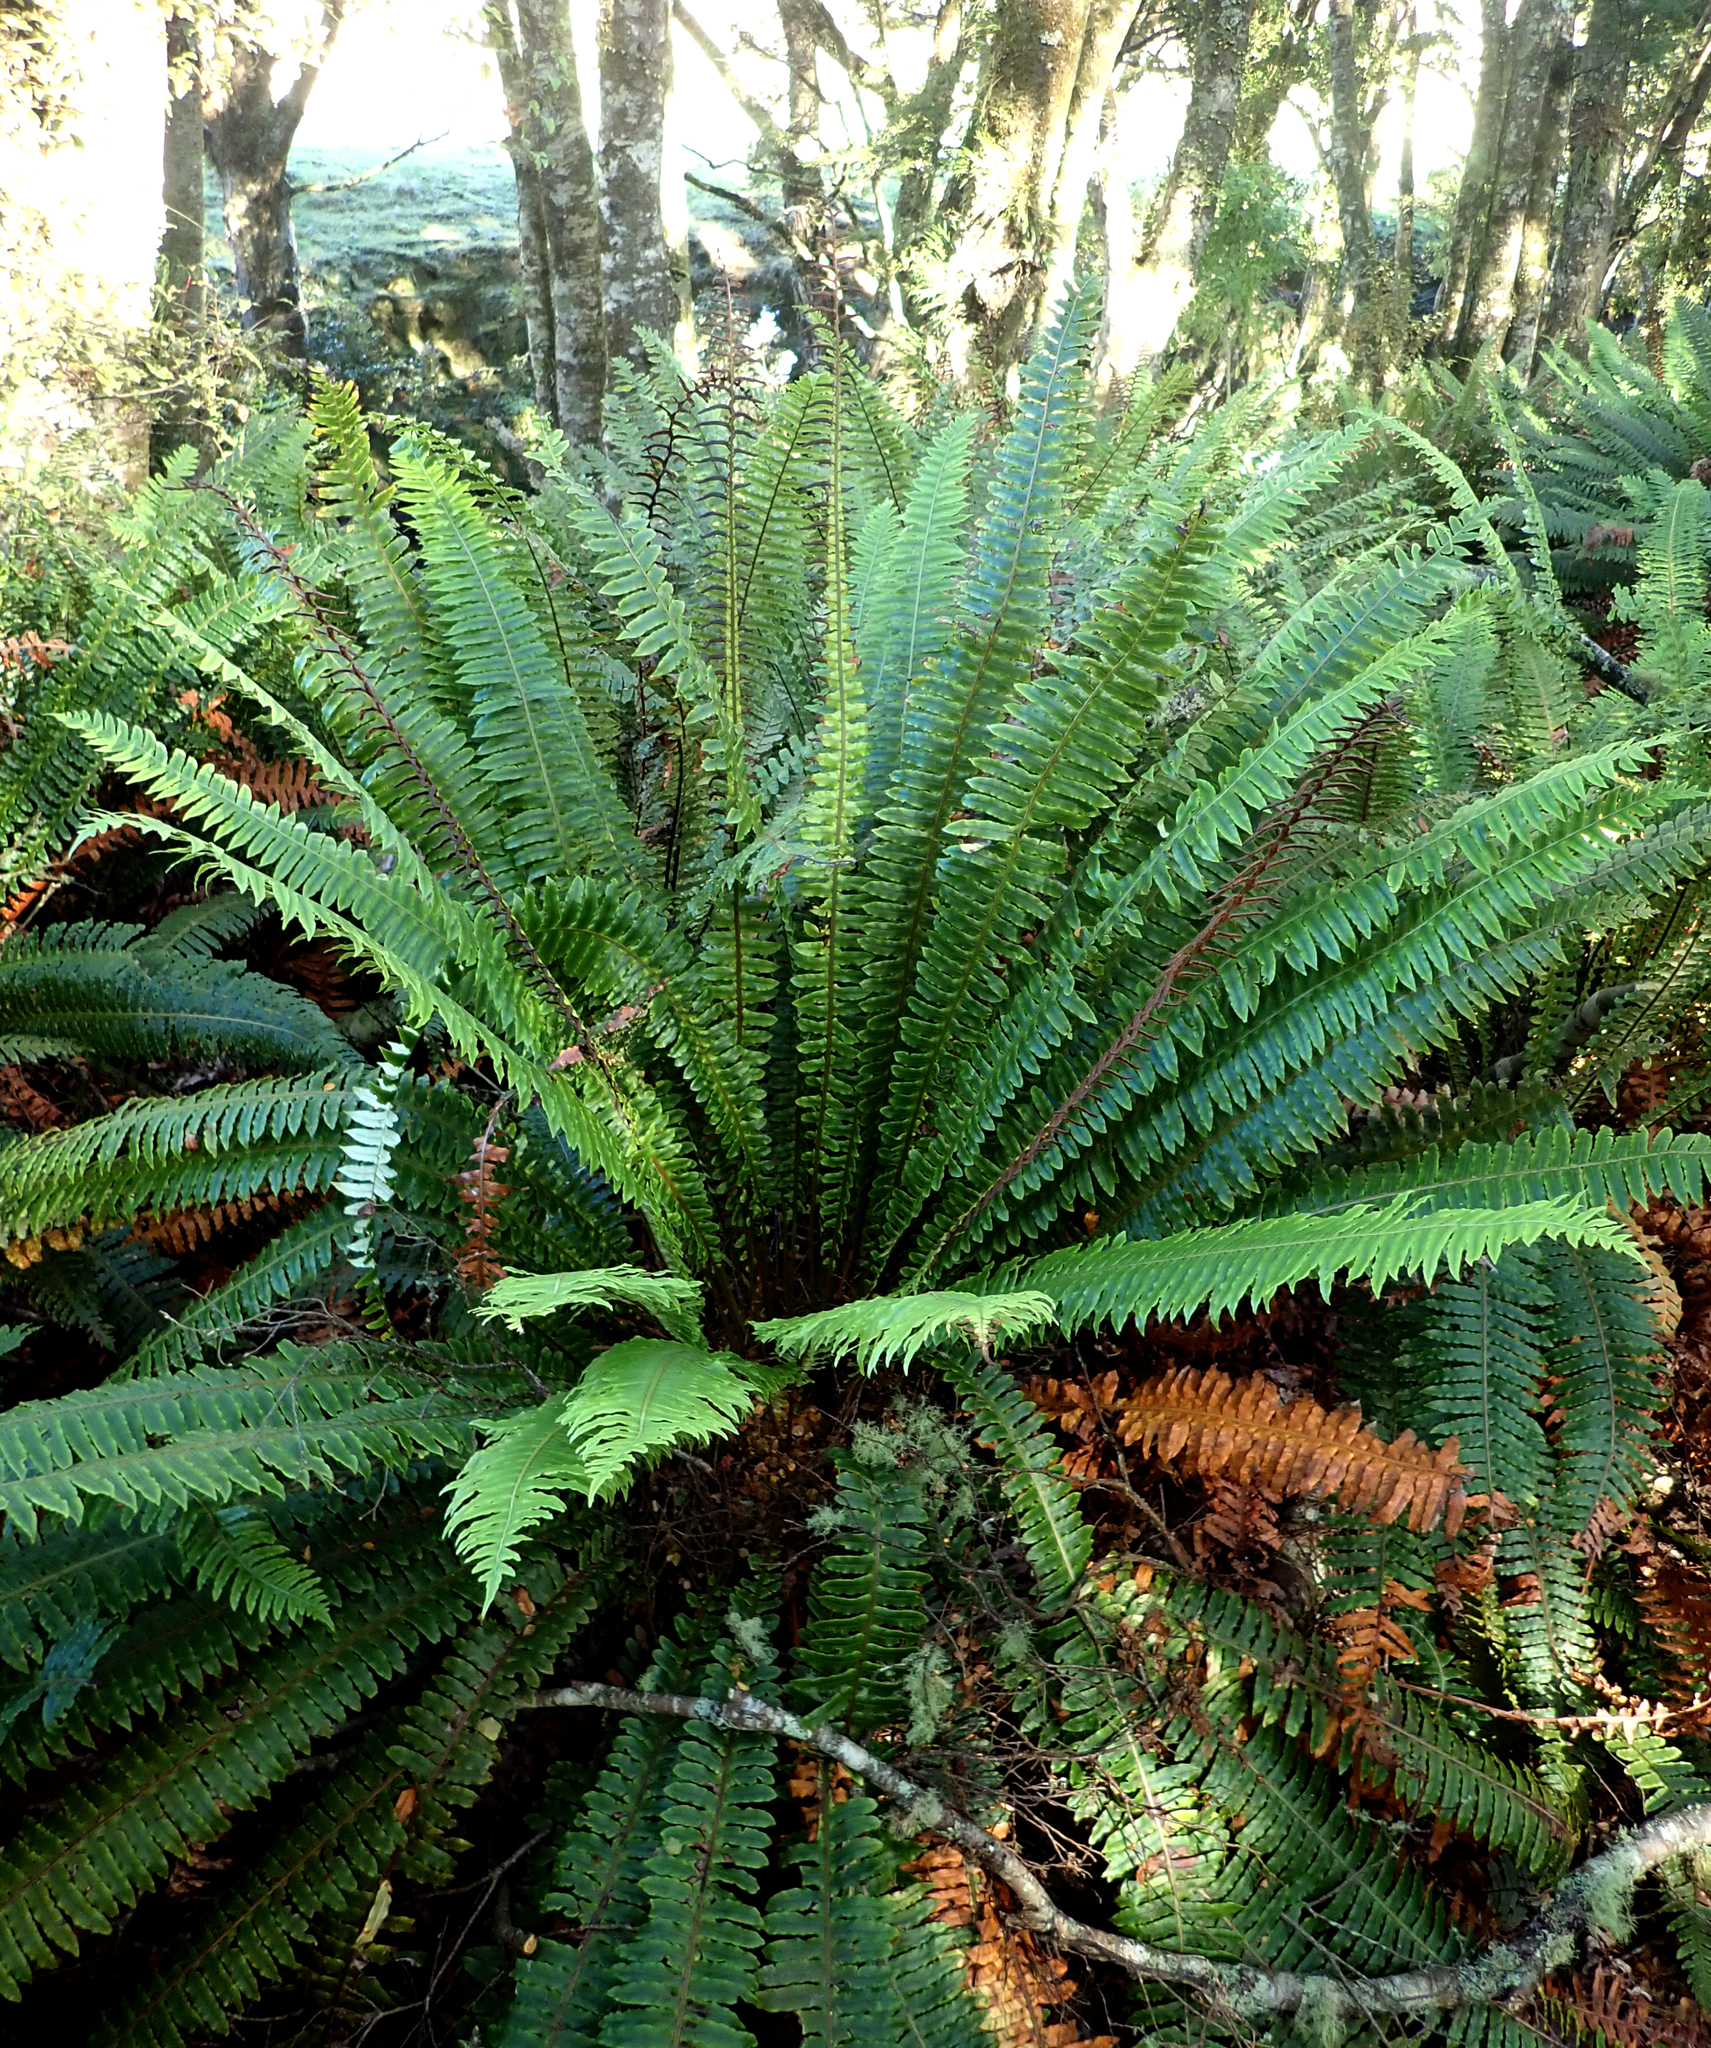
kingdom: Plantae
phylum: Tracheophyta
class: Polypodiopsida
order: Polypodiales
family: Blechnaceae
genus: Lomaria
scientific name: Lomaria discolor
